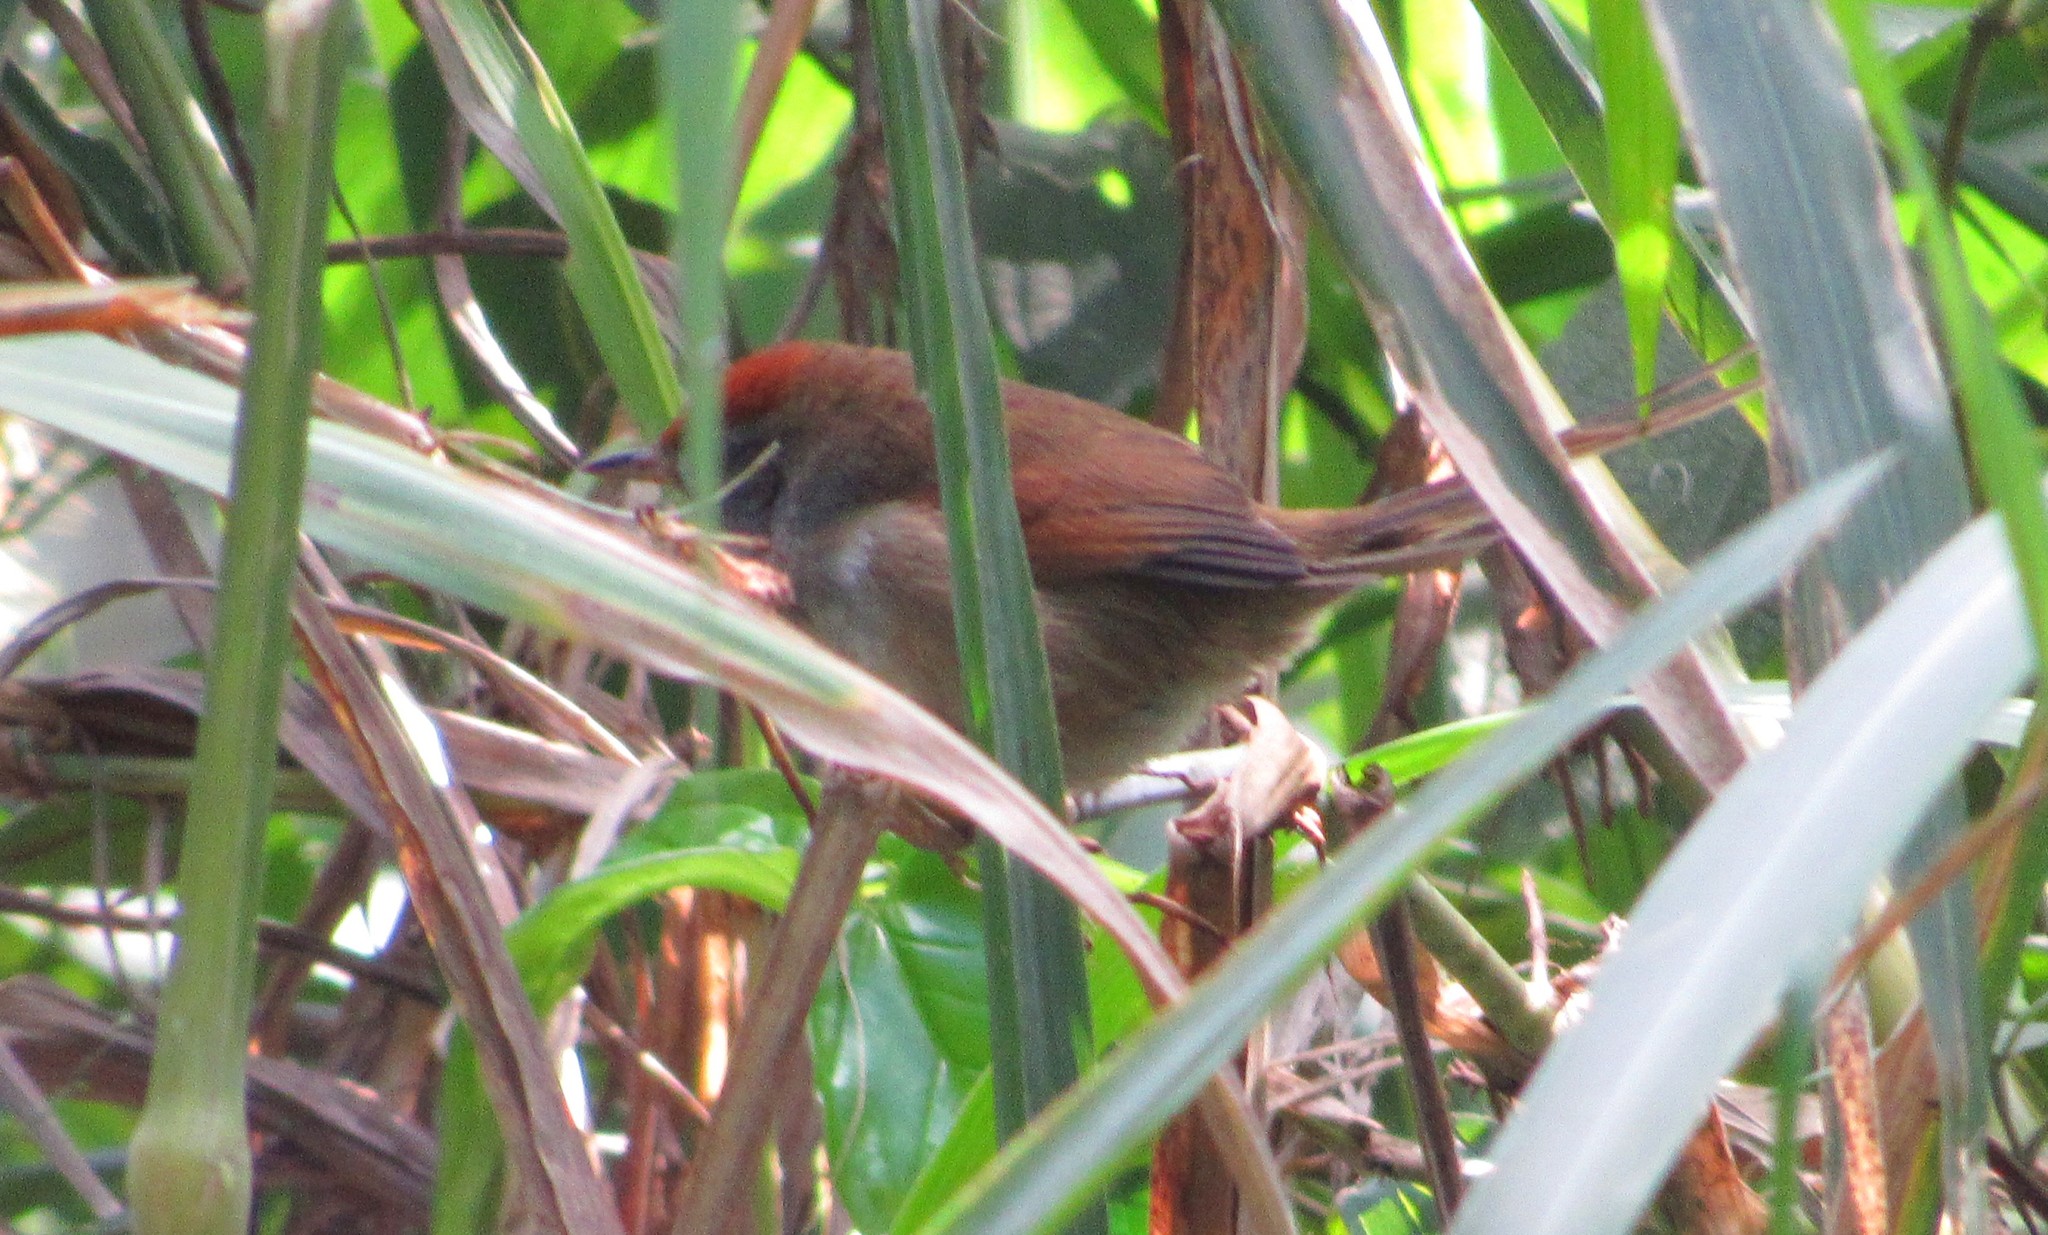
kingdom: Animalia
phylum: Chordata
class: Aves
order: Passeriformes
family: Furnariidae
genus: Synallaxis
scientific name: Synallaxis spixi
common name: Spix's spinetail
